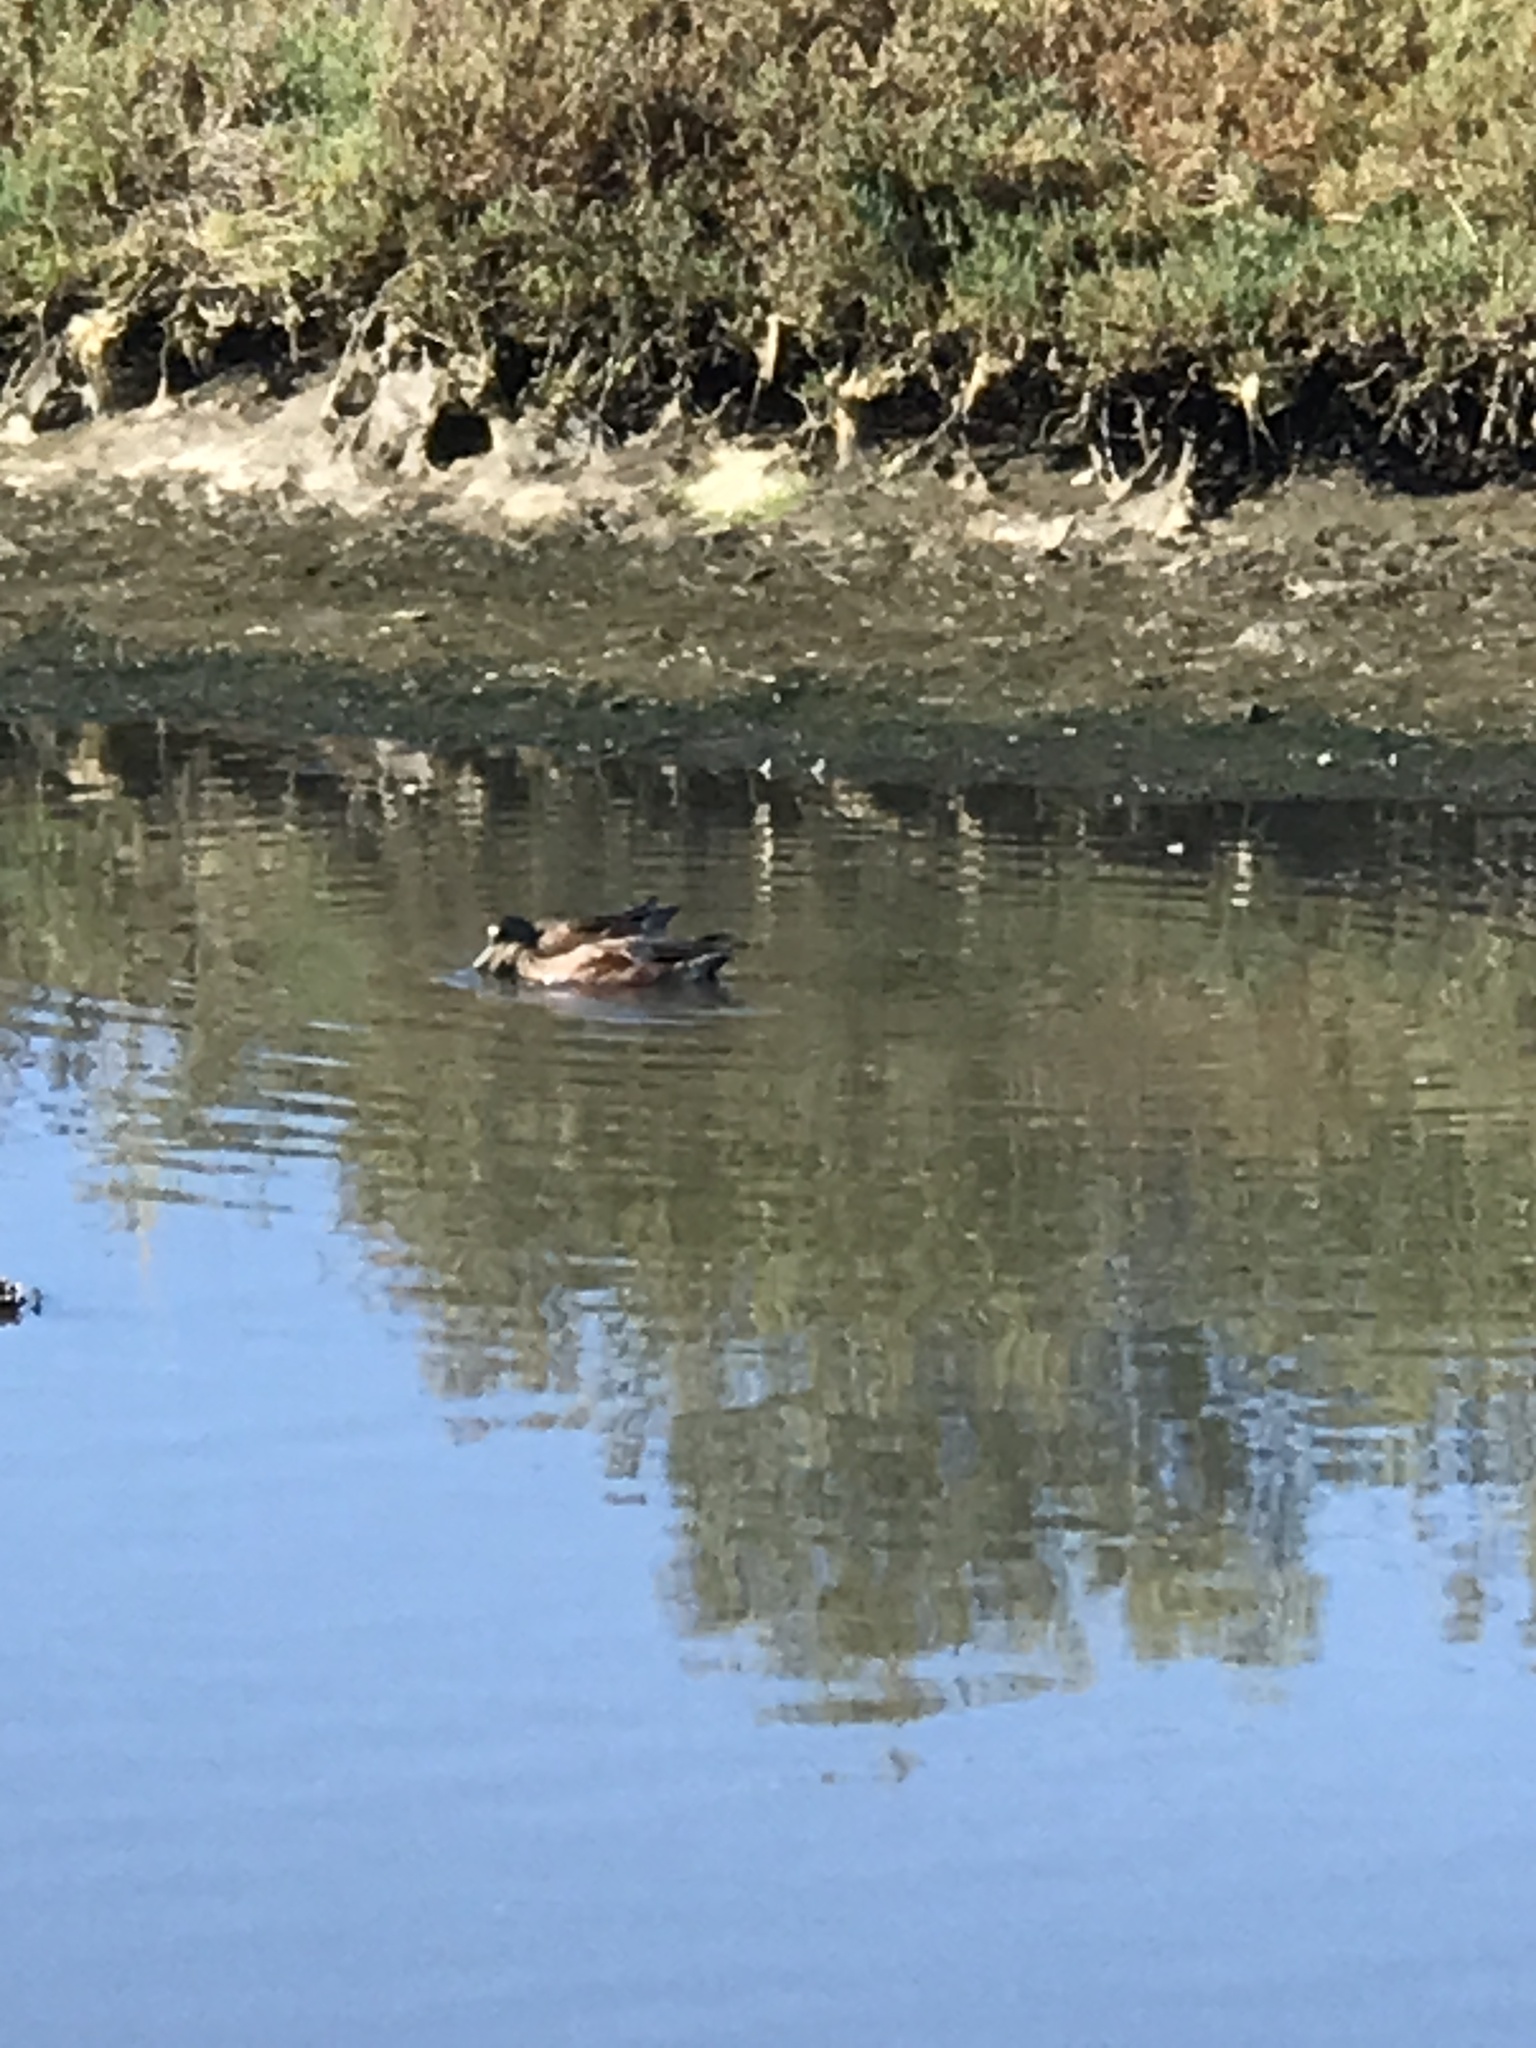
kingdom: Animalia
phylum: Chordata
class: Aves
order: Anseriformes
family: Anatidae
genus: Mareca
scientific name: Mareca americana
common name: American wigeon
